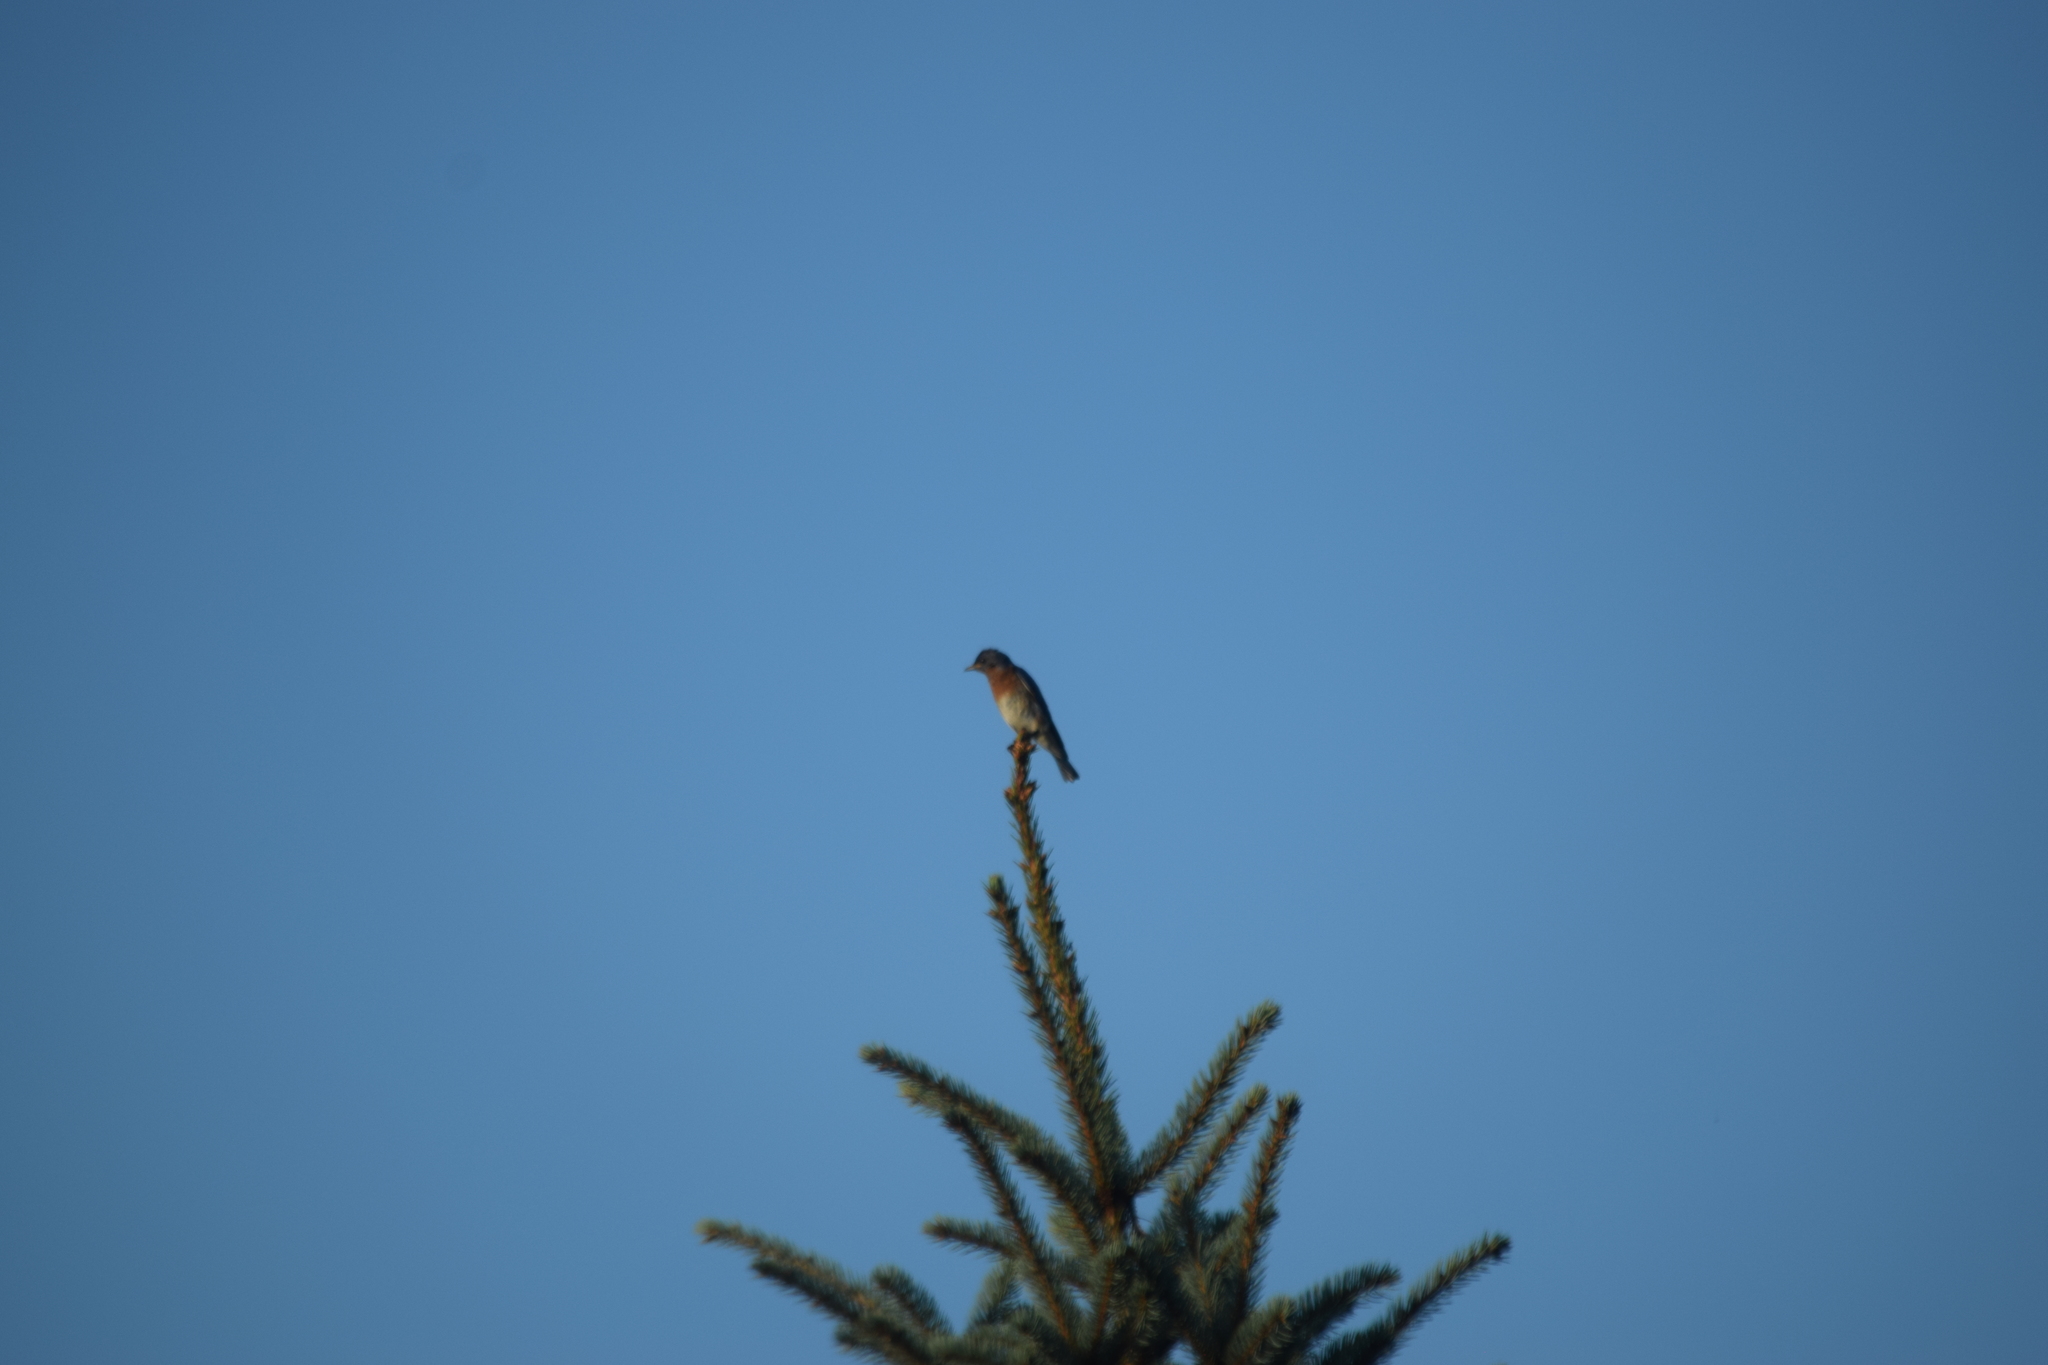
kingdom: Animalia
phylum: Chordata
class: Aves
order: Passeriformes
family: Turdidae
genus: Sialia
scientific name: Sialia sialis
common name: Eastern bluebird
